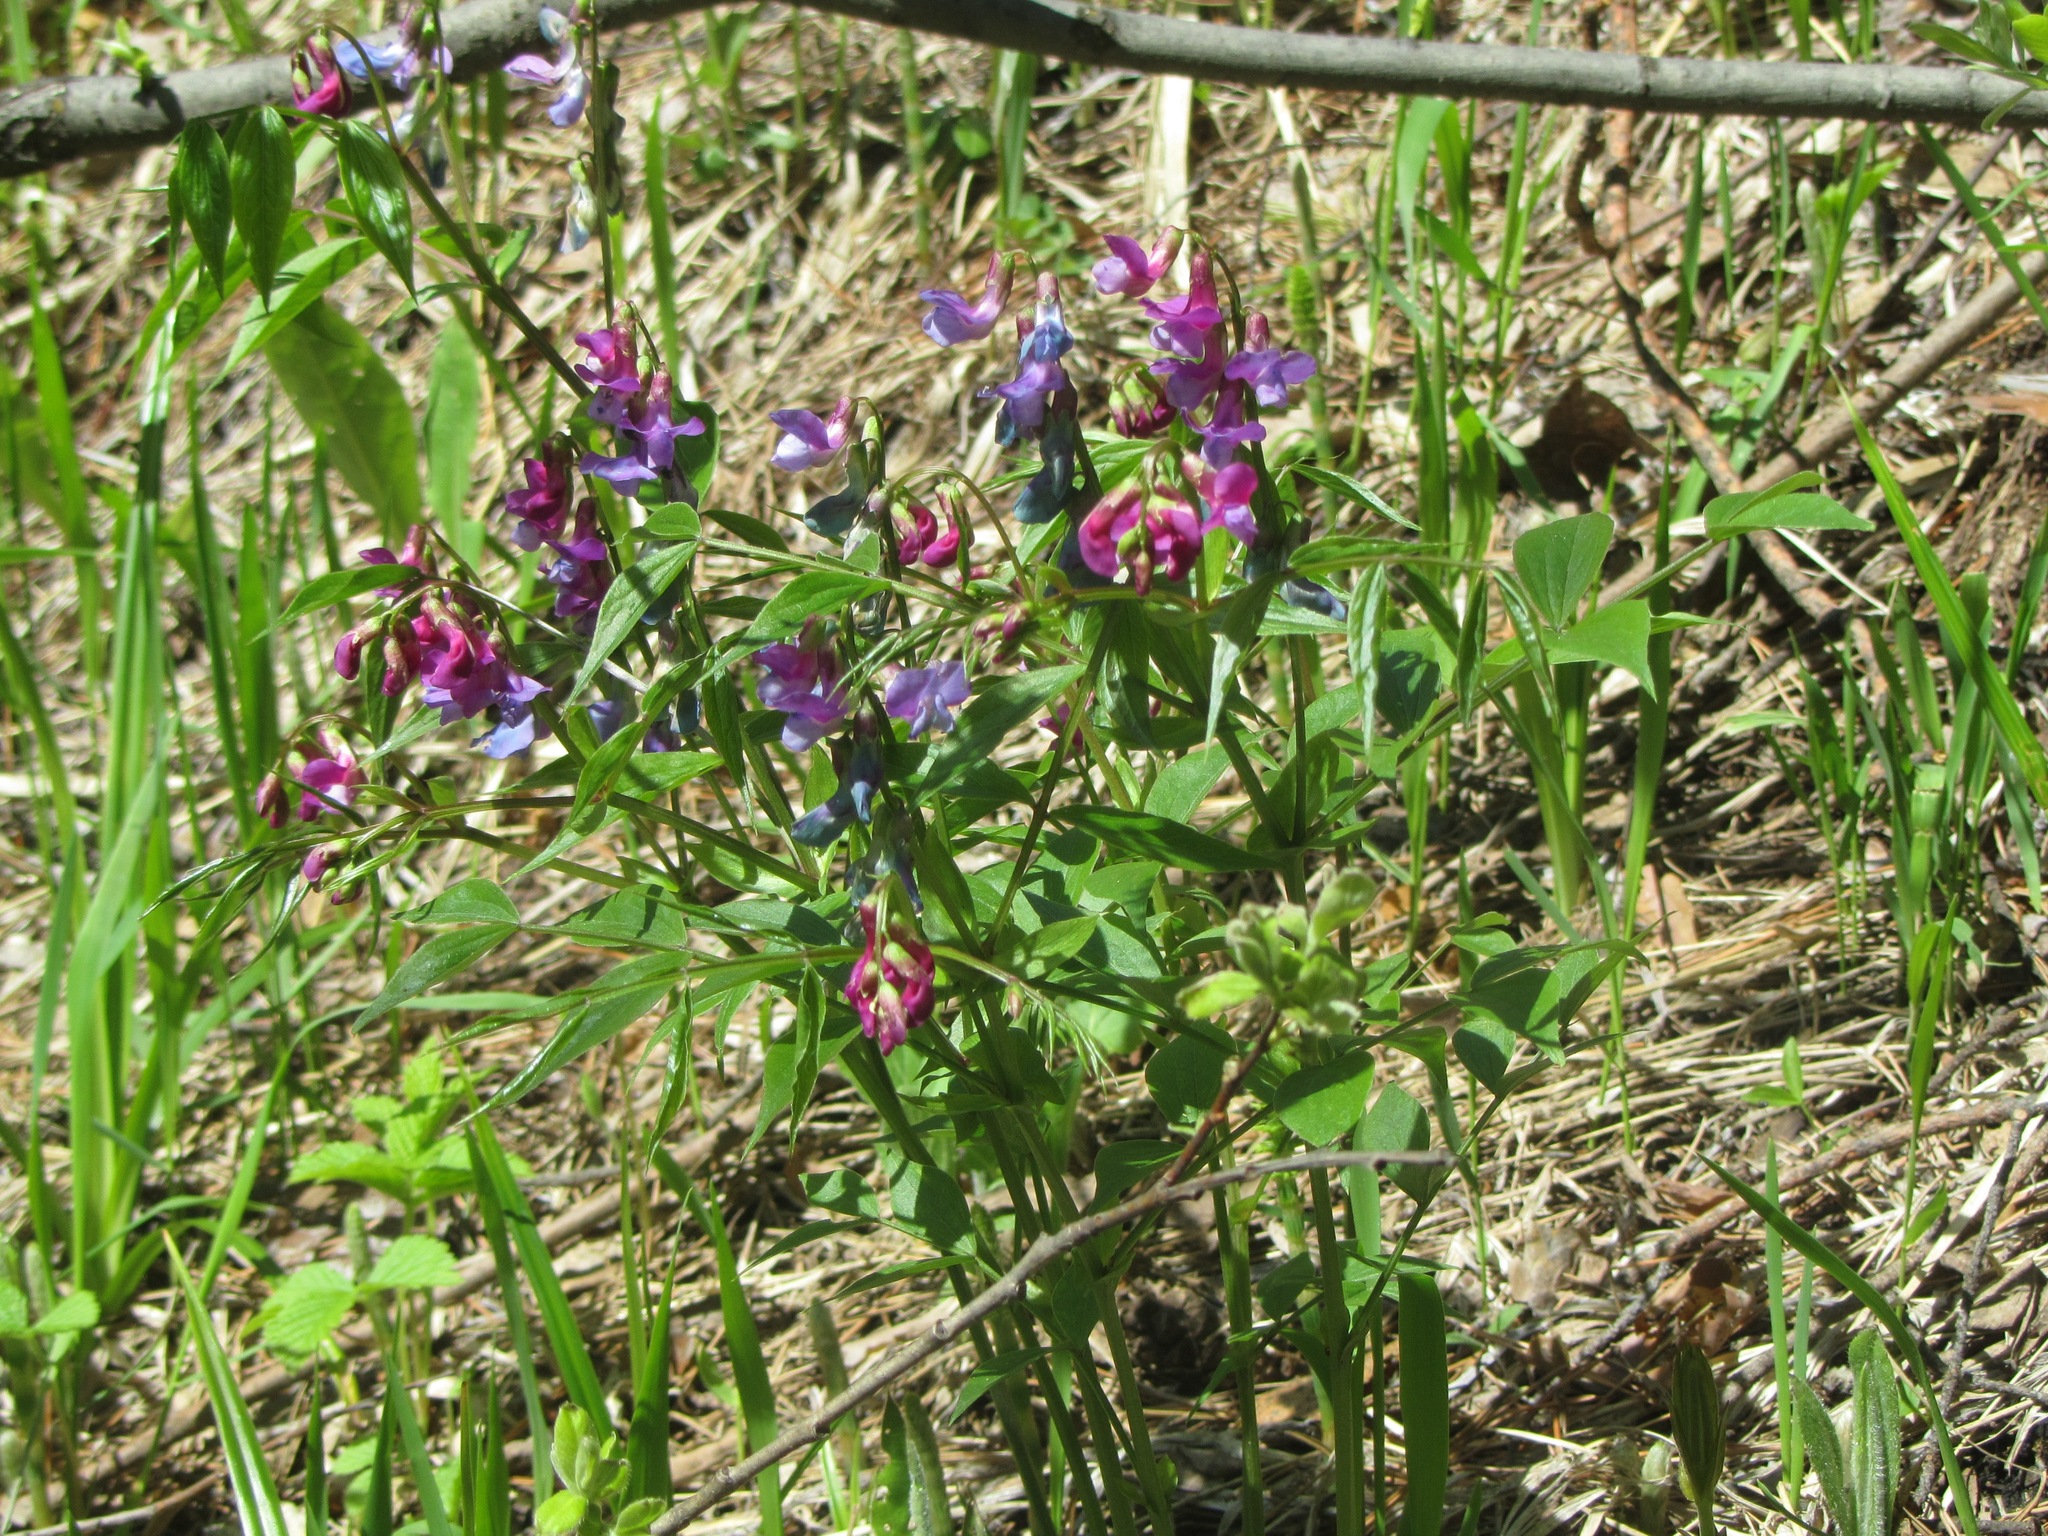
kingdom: Plantae
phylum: Tracheophyta
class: Magnoliopsida
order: Fabales
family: Fabaceae
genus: Lathyrus
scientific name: Lathyrus vernus
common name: Spring pea
